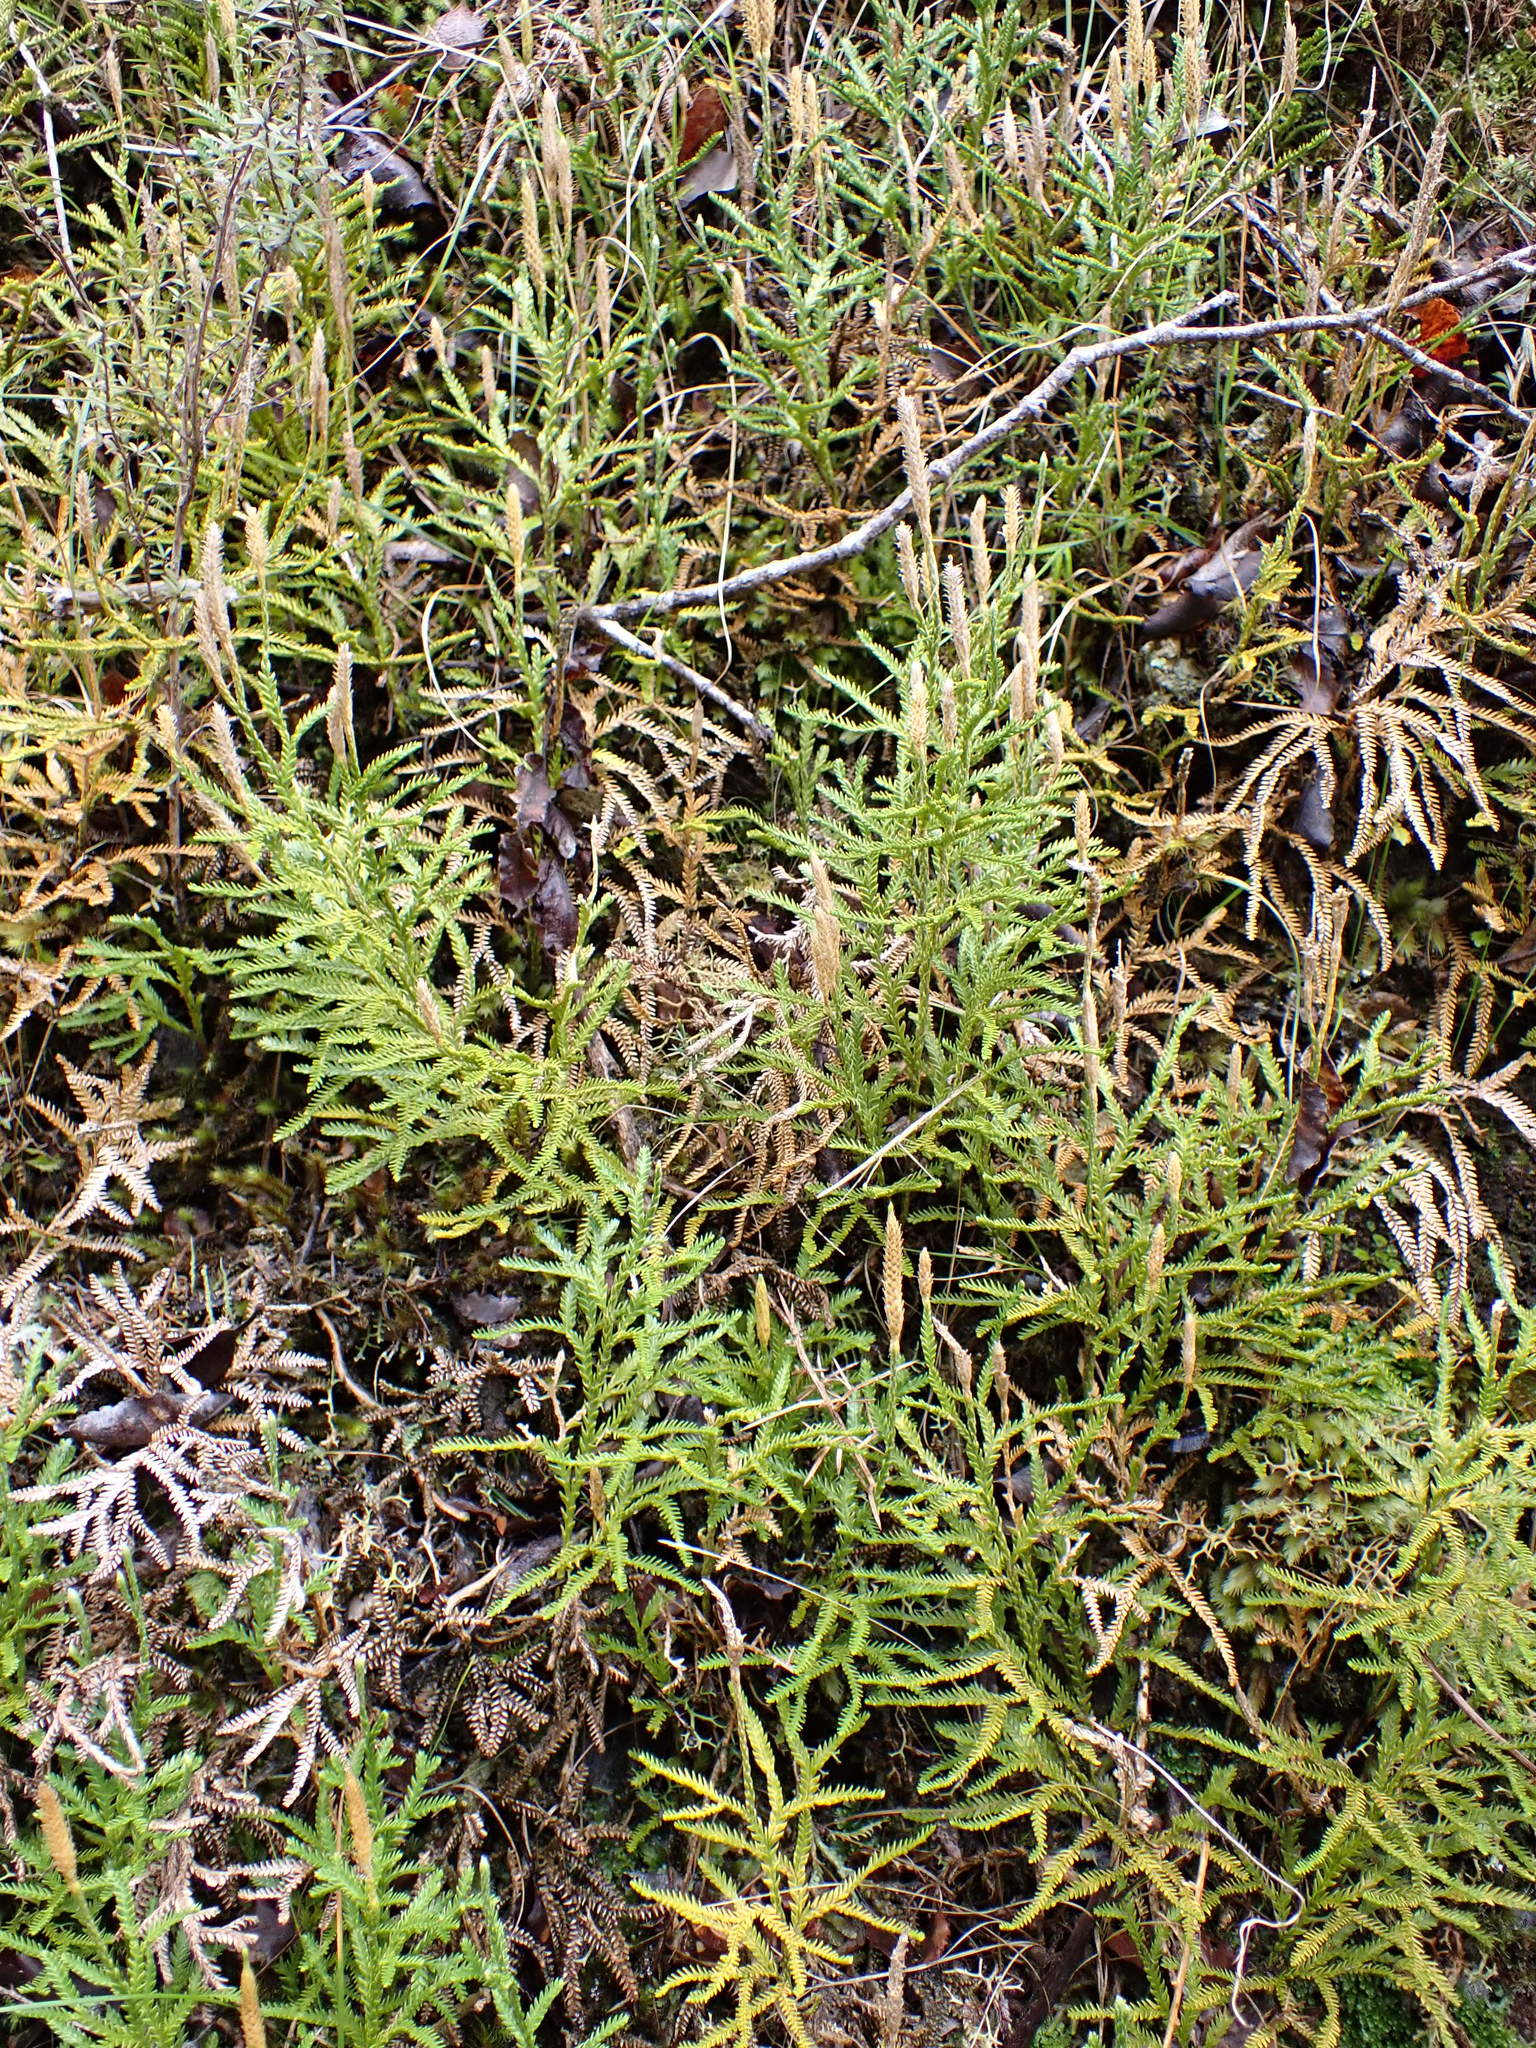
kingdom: Plantae
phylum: Tracheophyta
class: Lycopodiopsida
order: Lycopodiales
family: Lycopodiaceae
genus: Diphasium
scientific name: Diphasium scariosum
